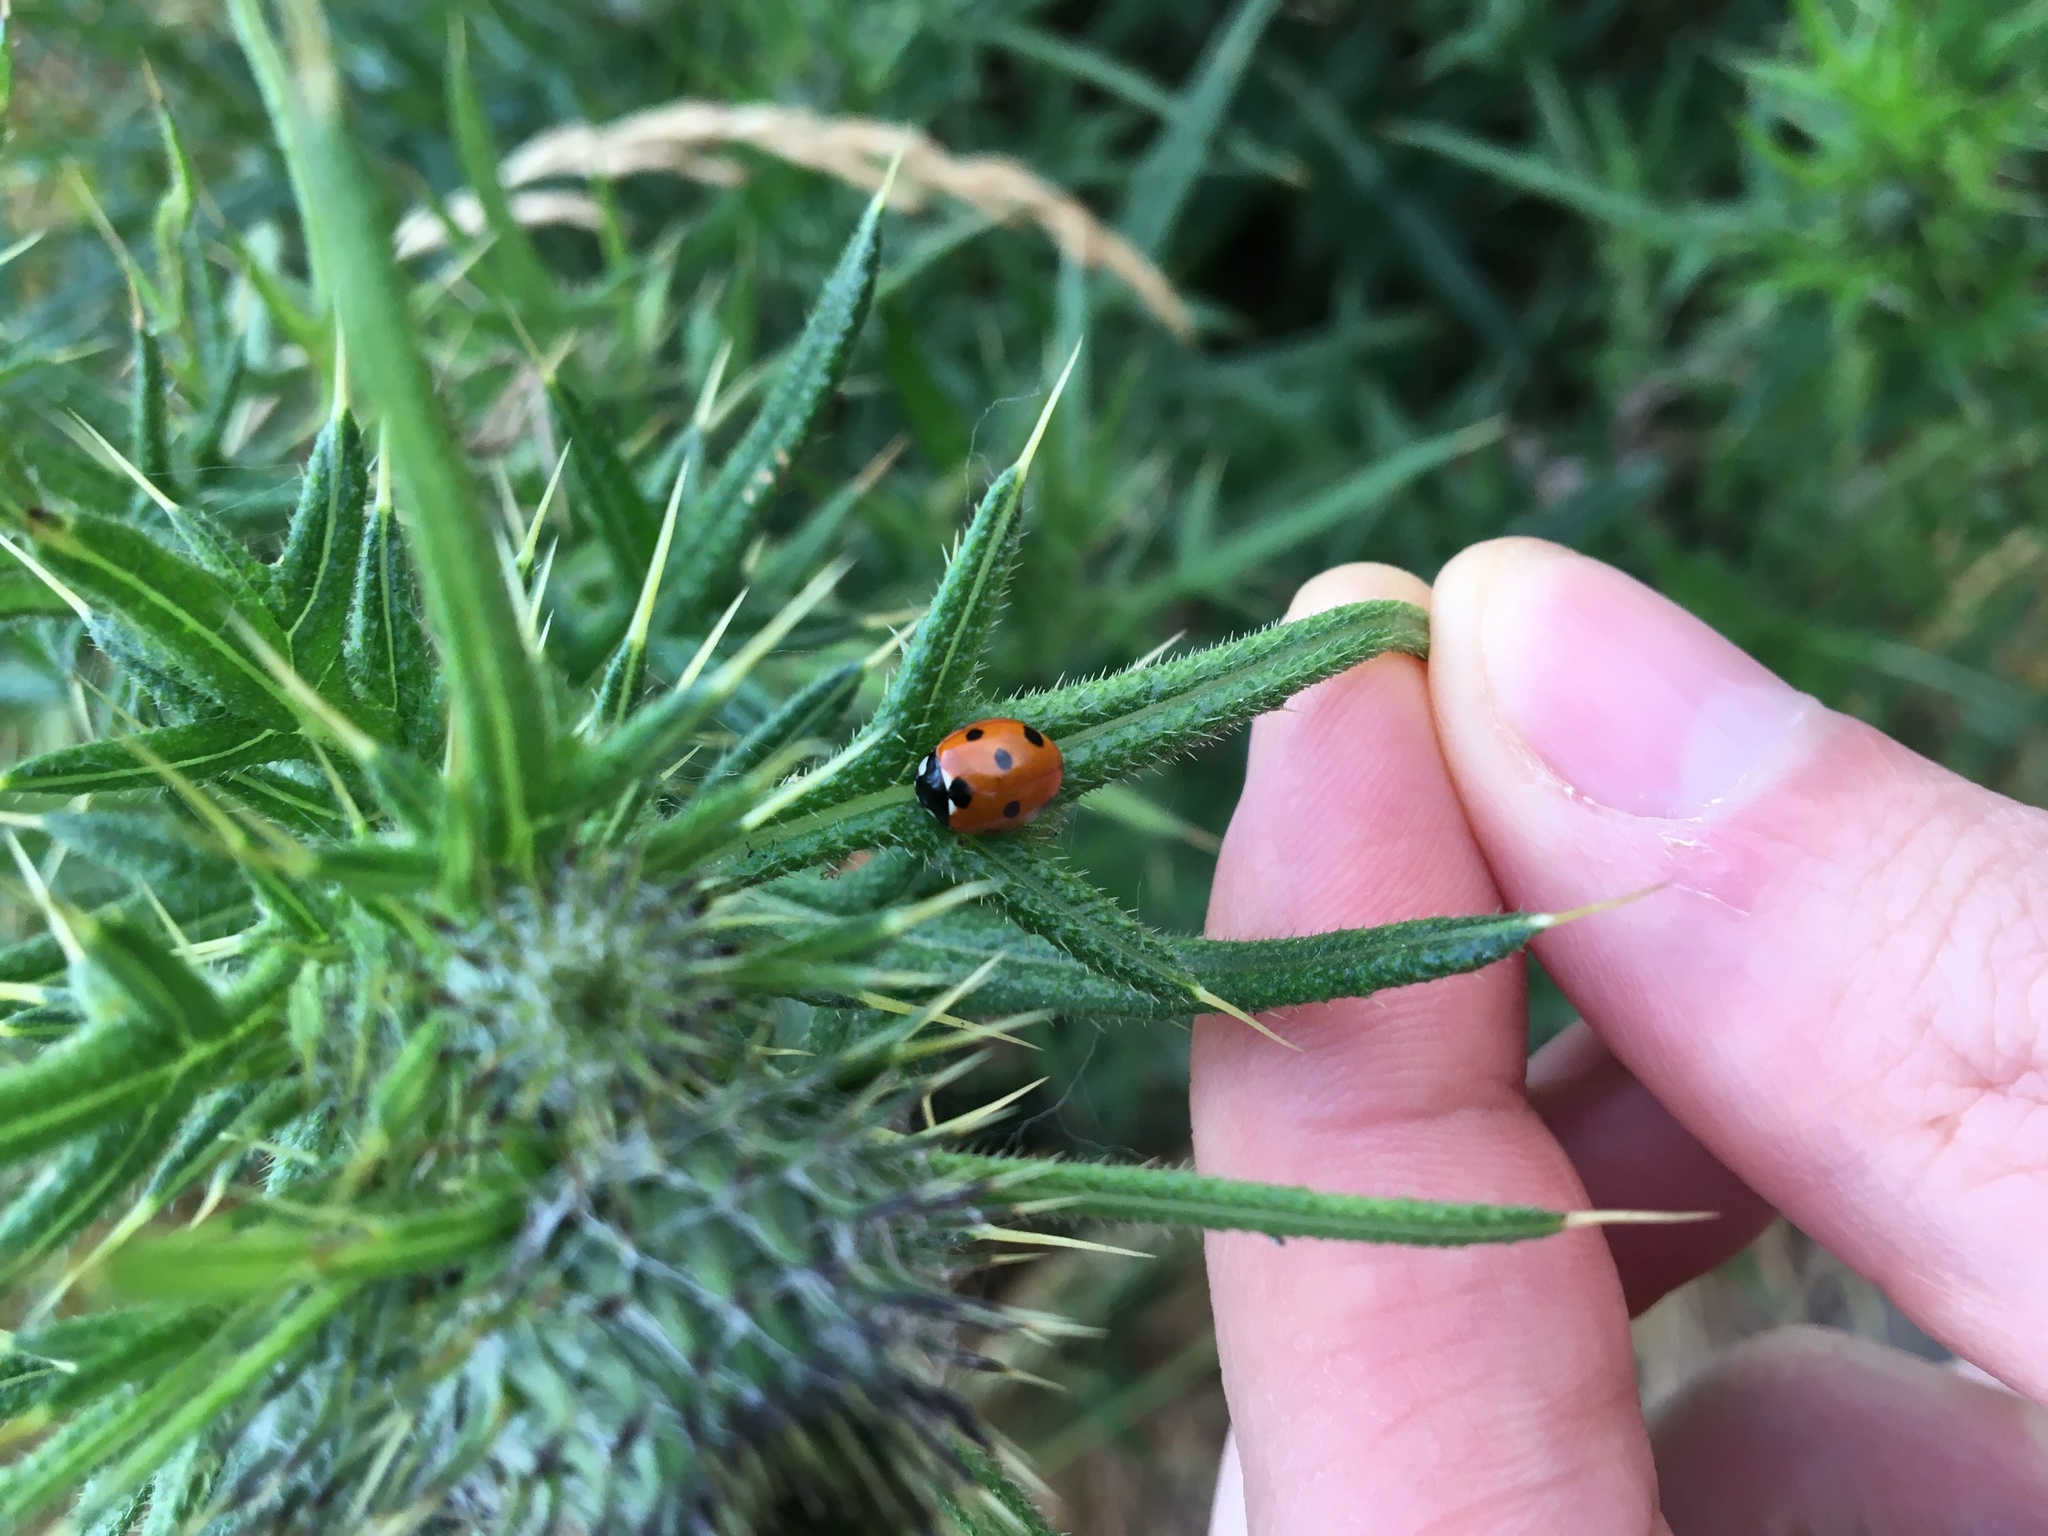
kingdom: Animalia
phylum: Arthropoda
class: Insecta
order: Coleoptera
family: Coccinellidae
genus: Coccinella
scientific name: Coccinella septempunctata
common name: Sevenspotted lady beetle
